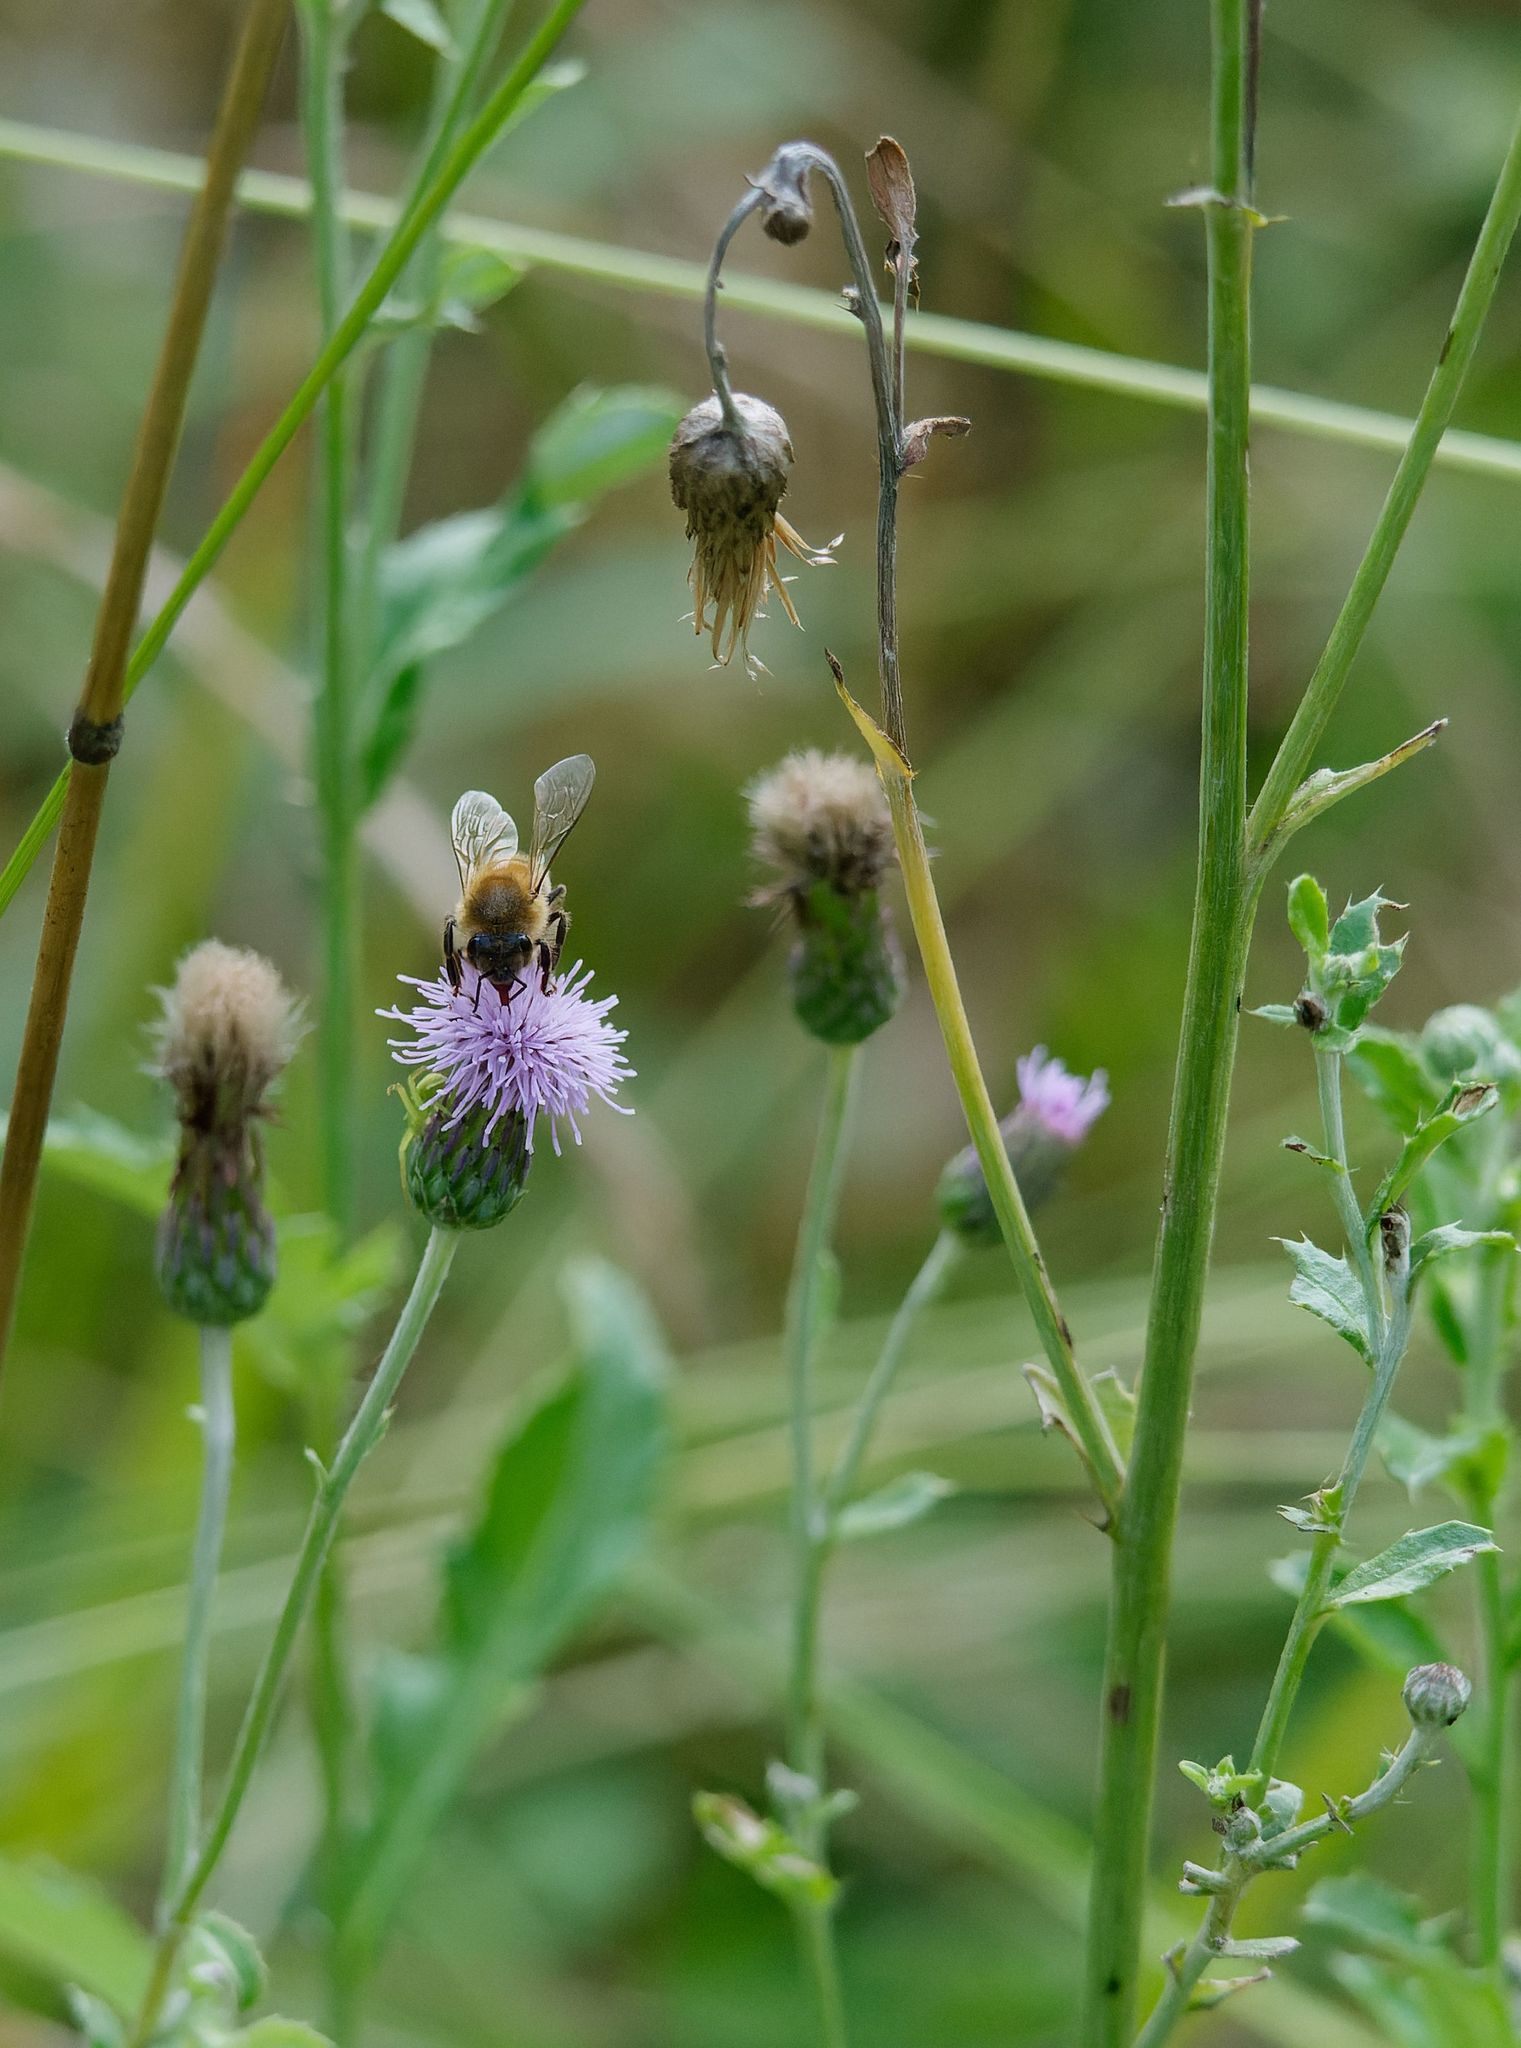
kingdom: Plantae
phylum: Tracheophyta
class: Magnoliopsida
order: Asterales
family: Asteraceae
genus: Cirsium
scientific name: Cirsium arvense
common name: Creeping thistle
